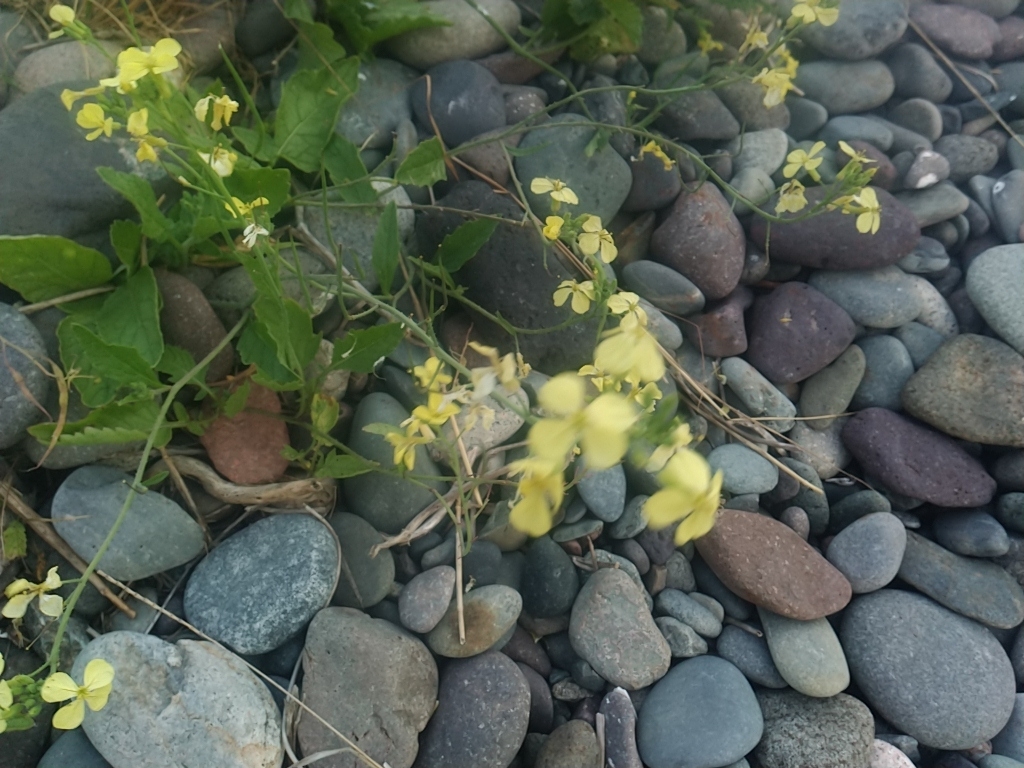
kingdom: Plantae
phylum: Tracheophyta
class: Magnoliopsida
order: Brassicales
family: Brassicaceae
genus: Raphanus
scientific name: Raphanus raphanistrum
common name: Wild radish
